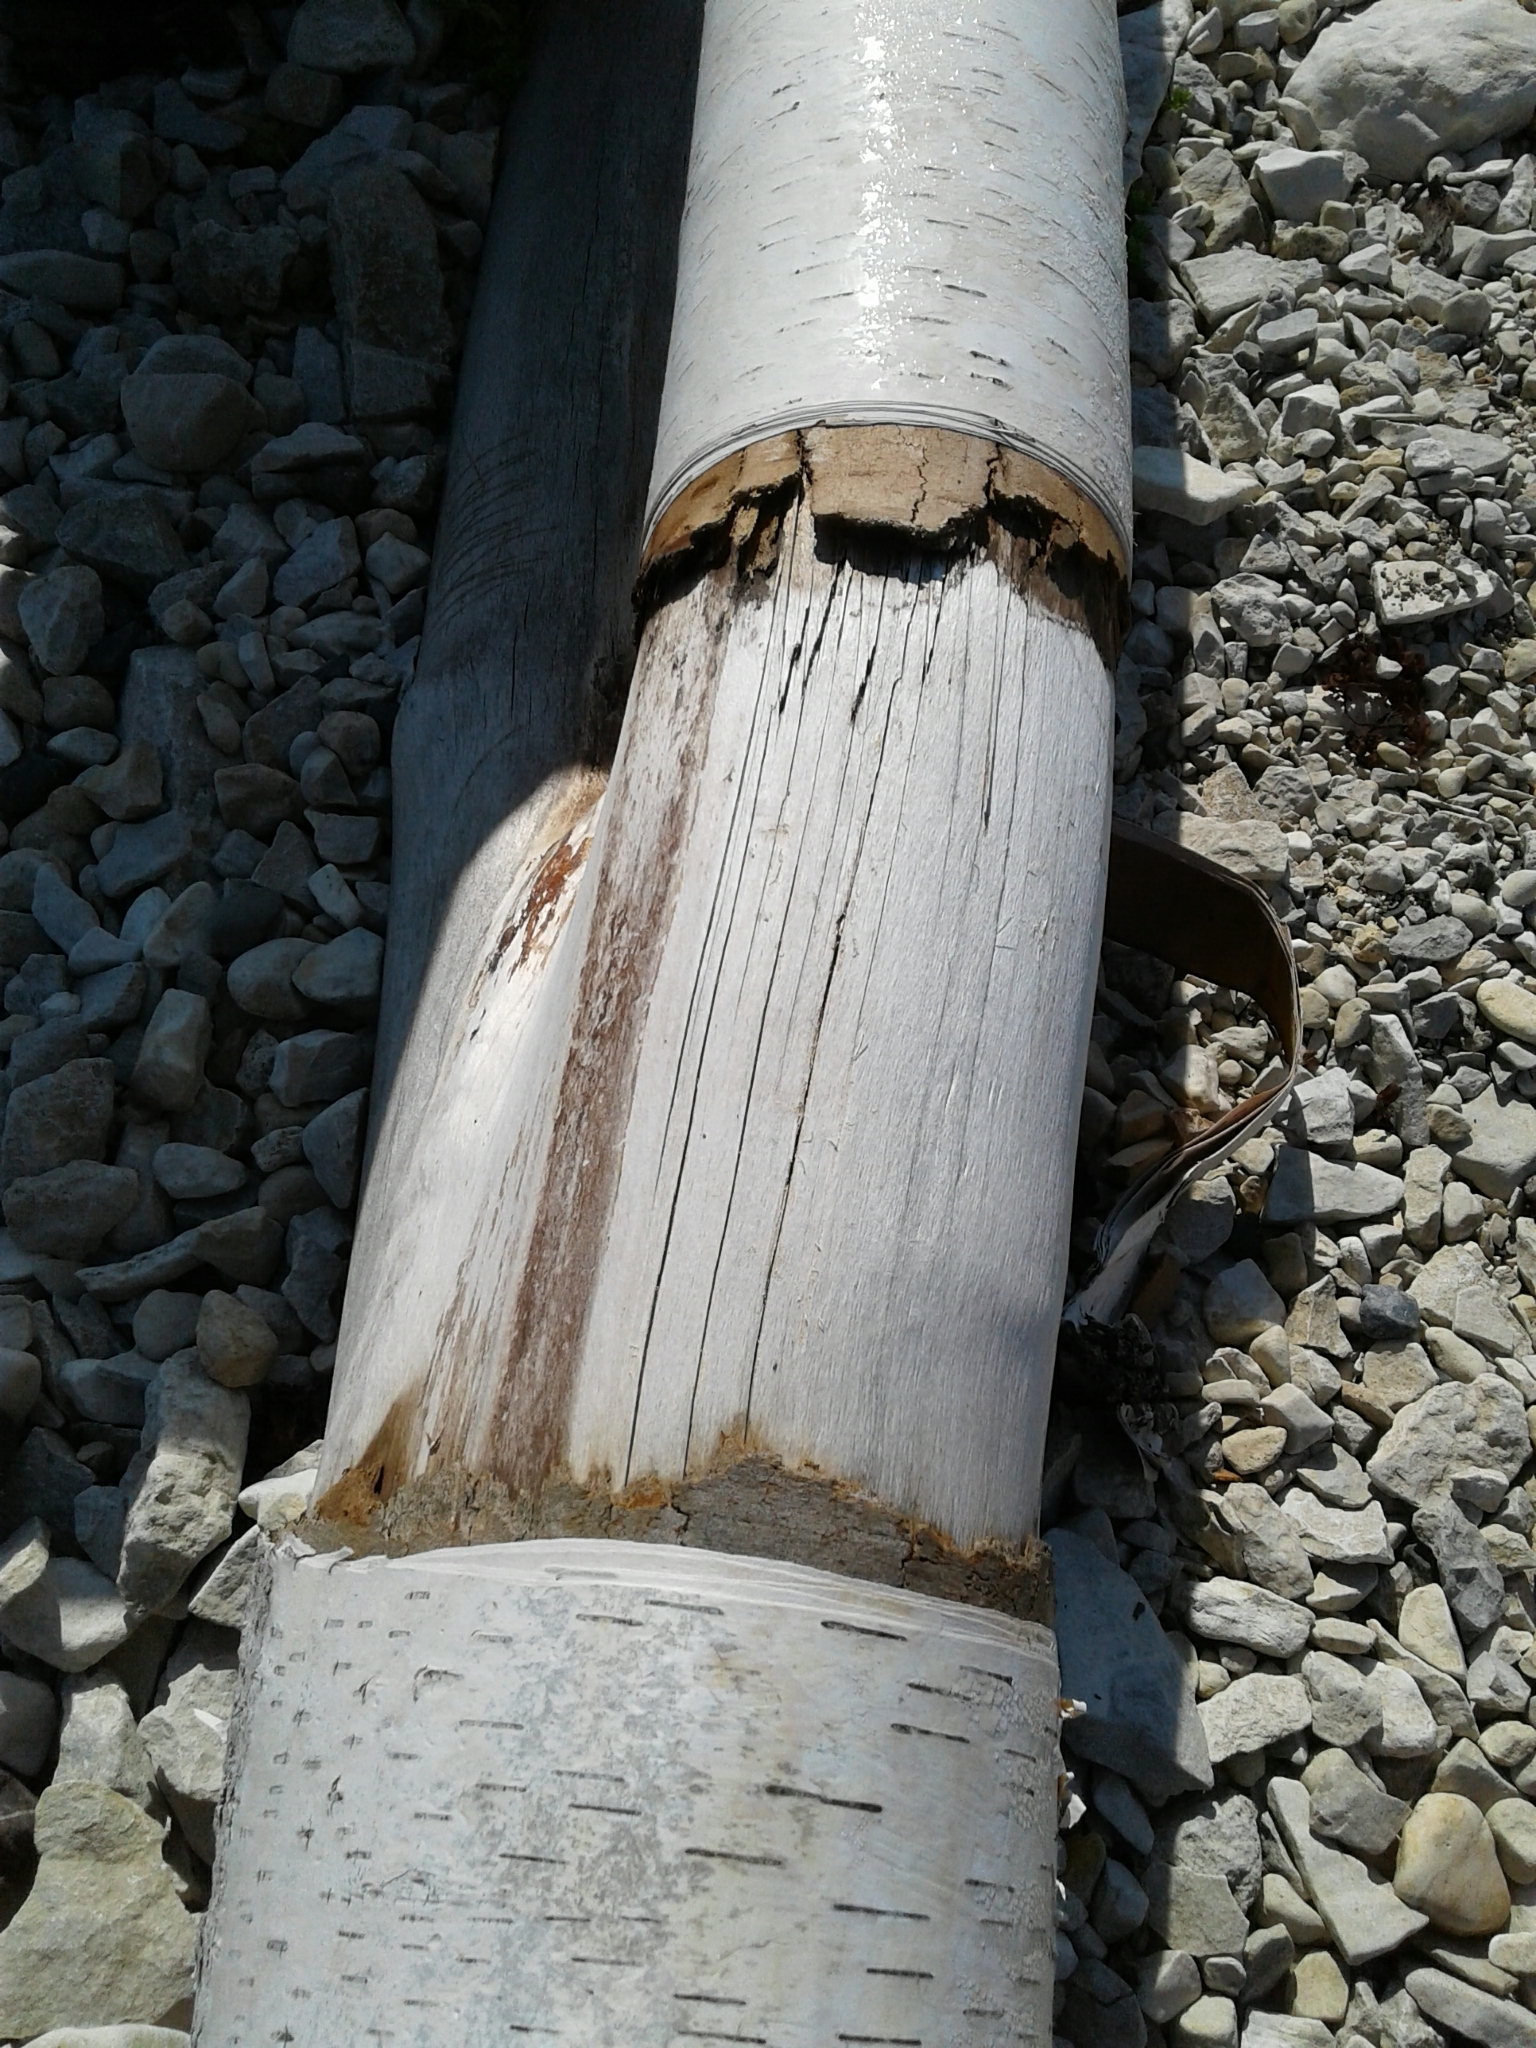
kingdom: Plantae
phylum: Tracheophyta
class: Magnoliopsida
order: Fagales
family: Betulaceae
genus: Betula
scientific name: Betula papyrifera
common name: Paper birch
